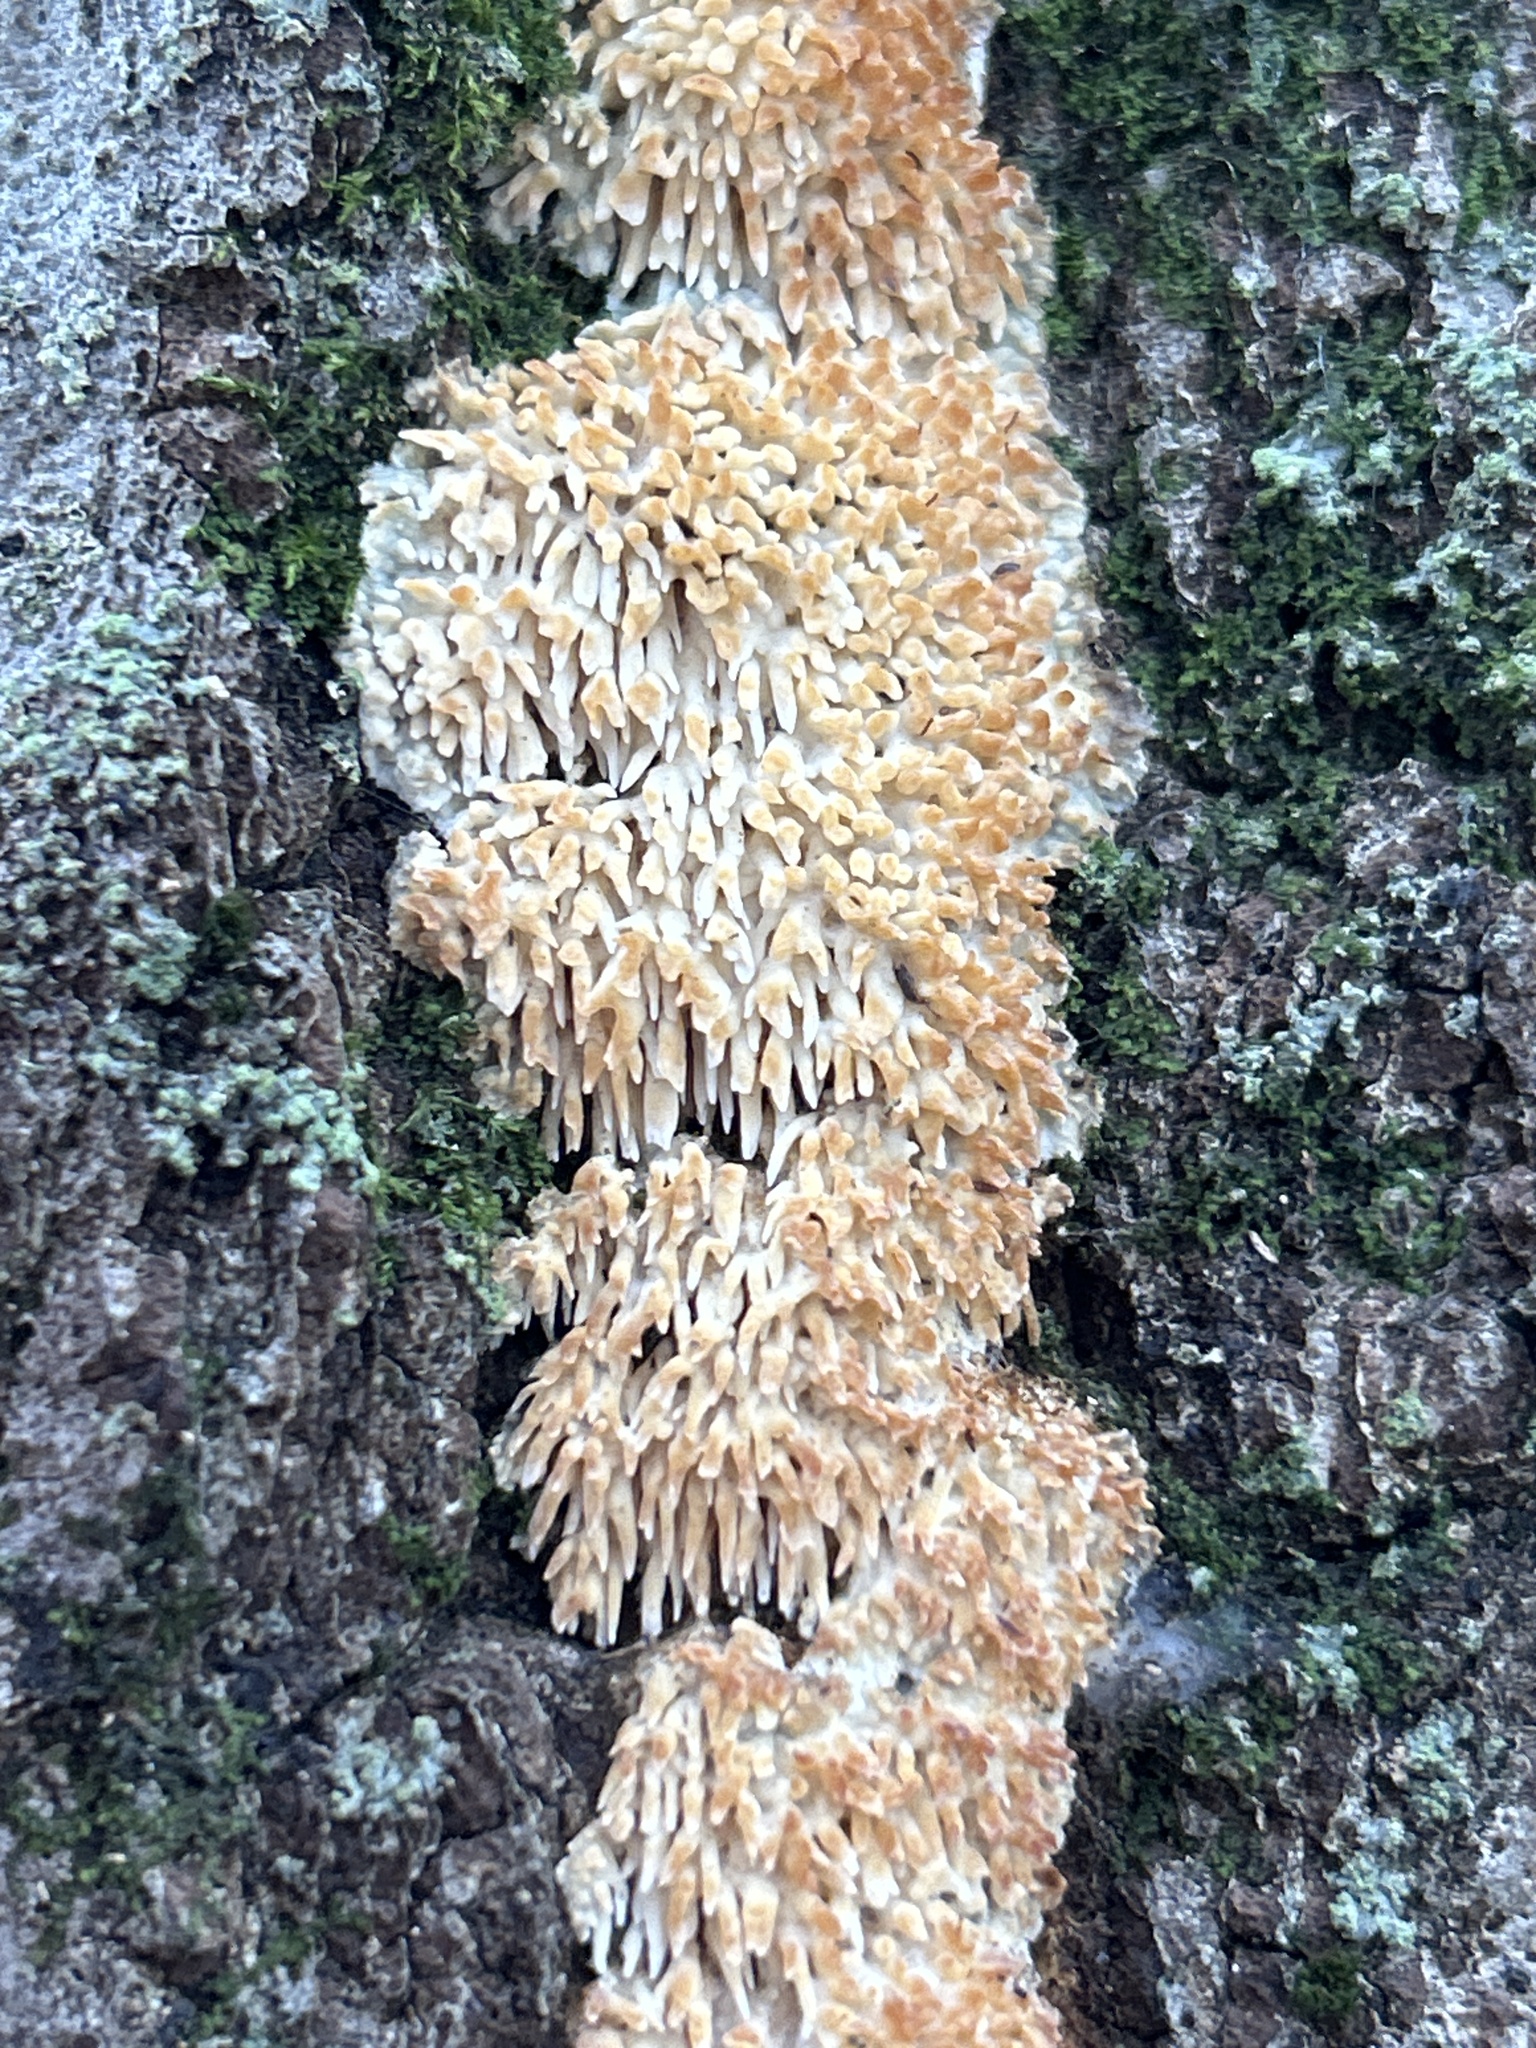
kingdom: Fungi
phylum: Basidiomycota
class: Agaricomycetes
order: Agaricales
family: Radulomycetaceae
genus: Radulomyces
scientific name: Radulomyces copelandii
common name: Asian beauty
